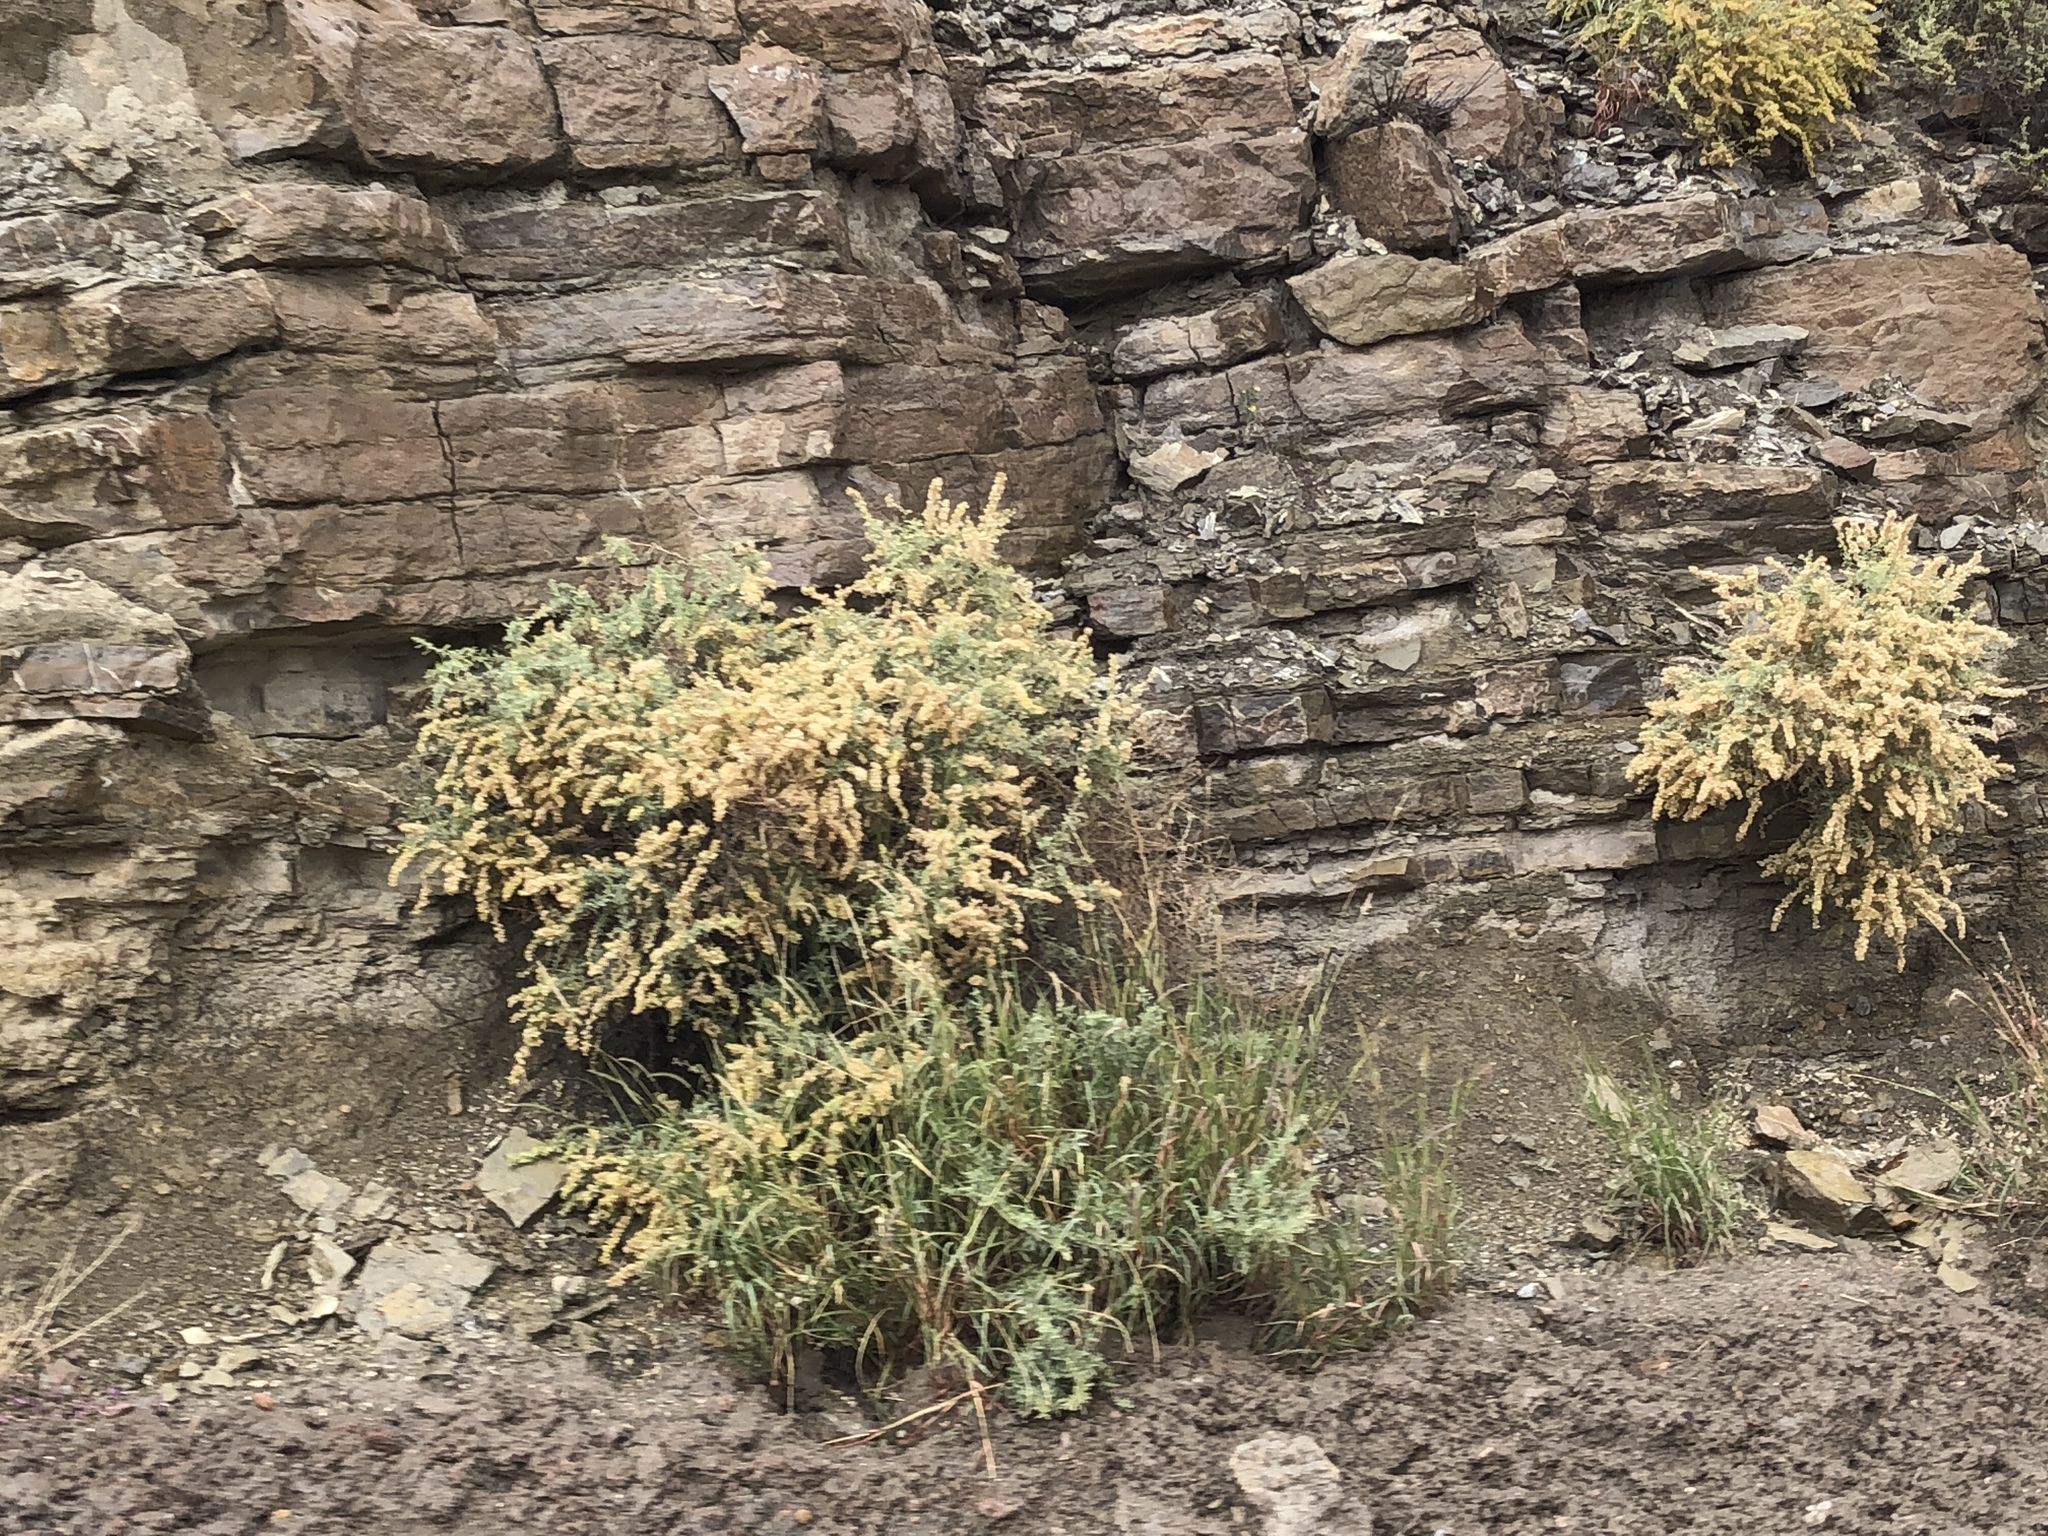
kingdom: Plantae
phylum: Tracheophyta
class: Magnoliopsida
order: Caryophyllales
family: Amaranthaceae
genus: Atriplex
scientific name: Atriplex canescens
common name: Four-wing saltbush
